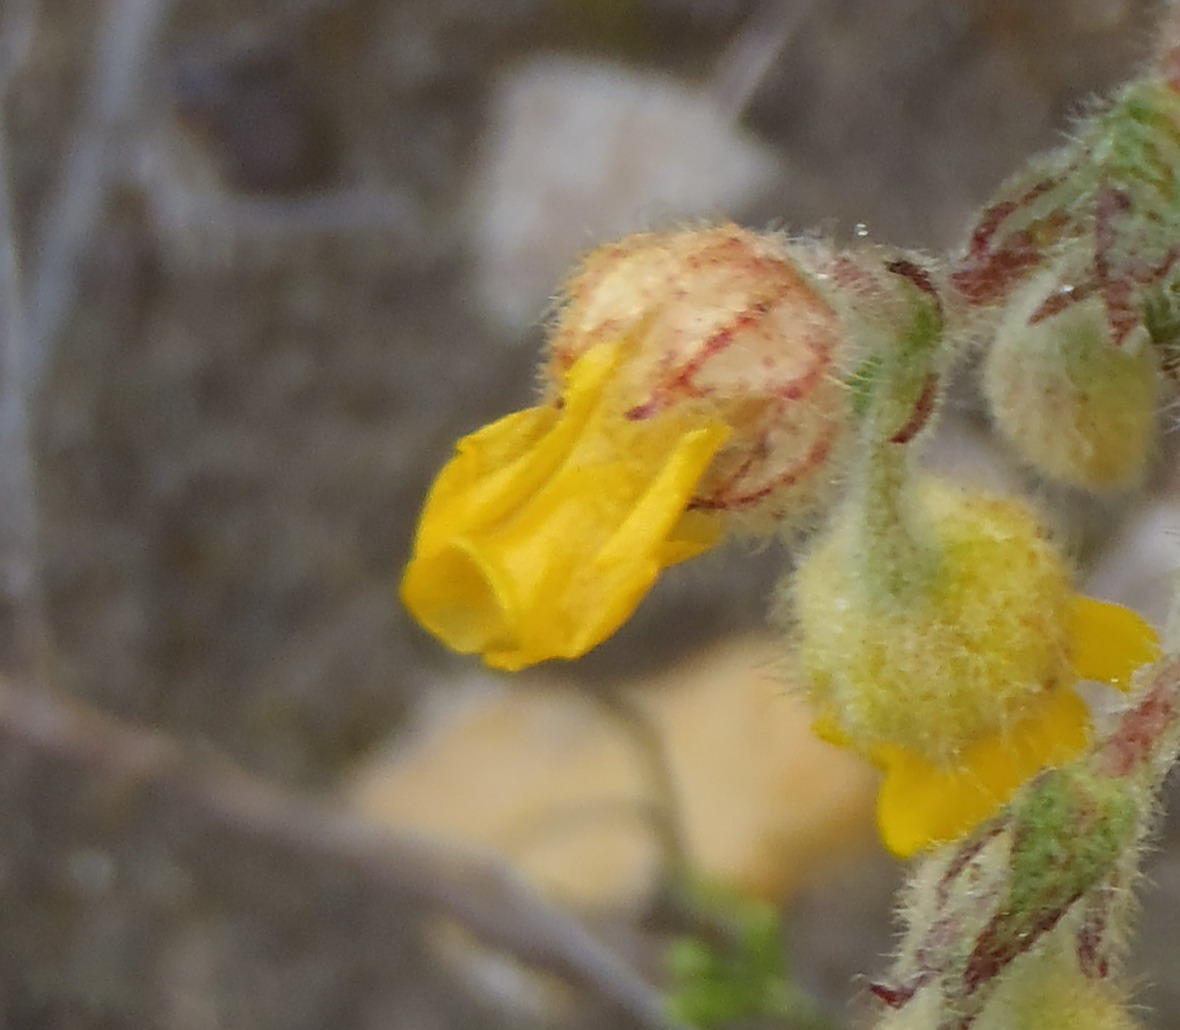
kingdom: Plantae
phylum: Tracheophyta
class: Magnoliopsida
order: Malvales
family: Malvaceae
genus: Hermannia
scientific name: Hermannia stipulacea
